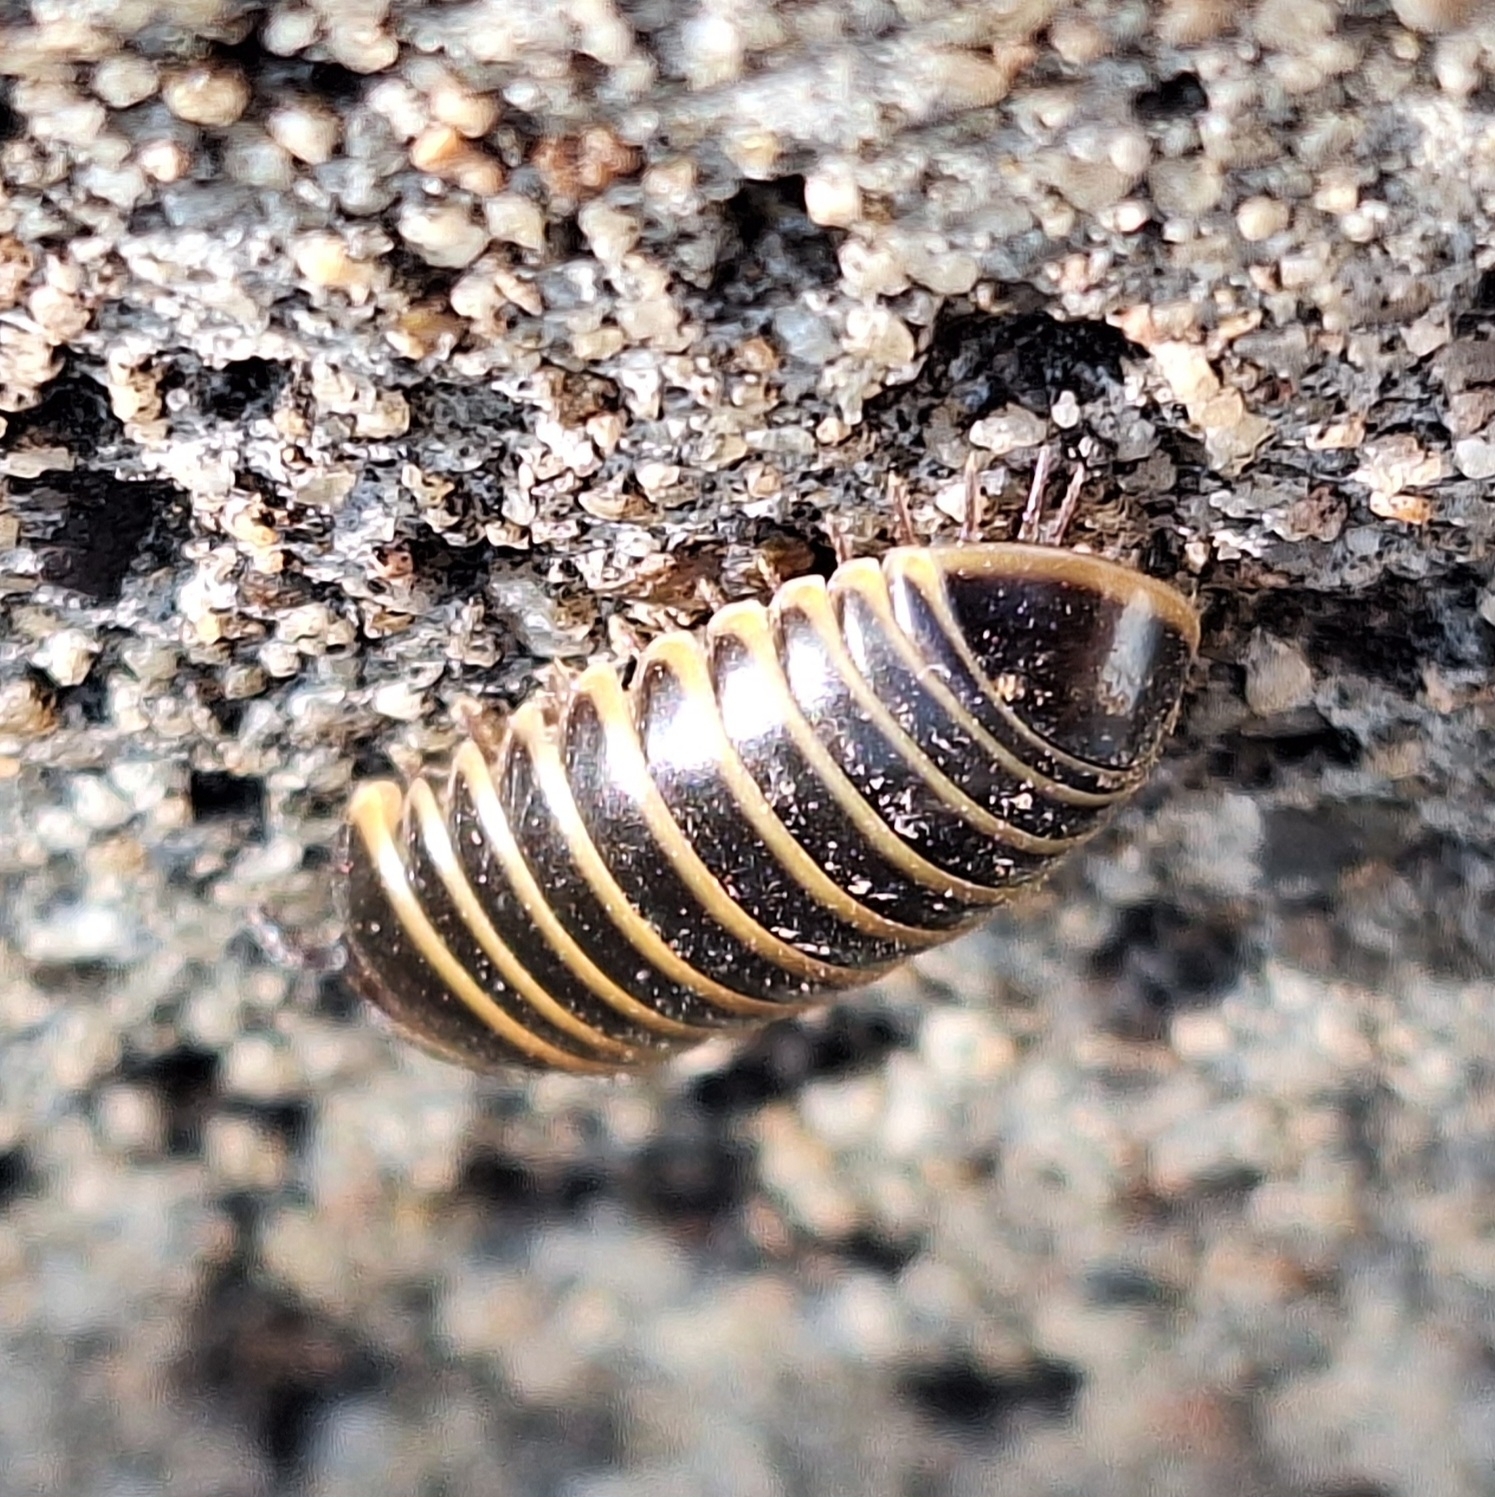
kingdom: Animalia
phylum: Arthropoda
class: Diplopoda
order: Glomerida
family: Glomeridae
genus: Glomeris
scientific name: Glomeris marginata
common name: Bordered pill millipede
